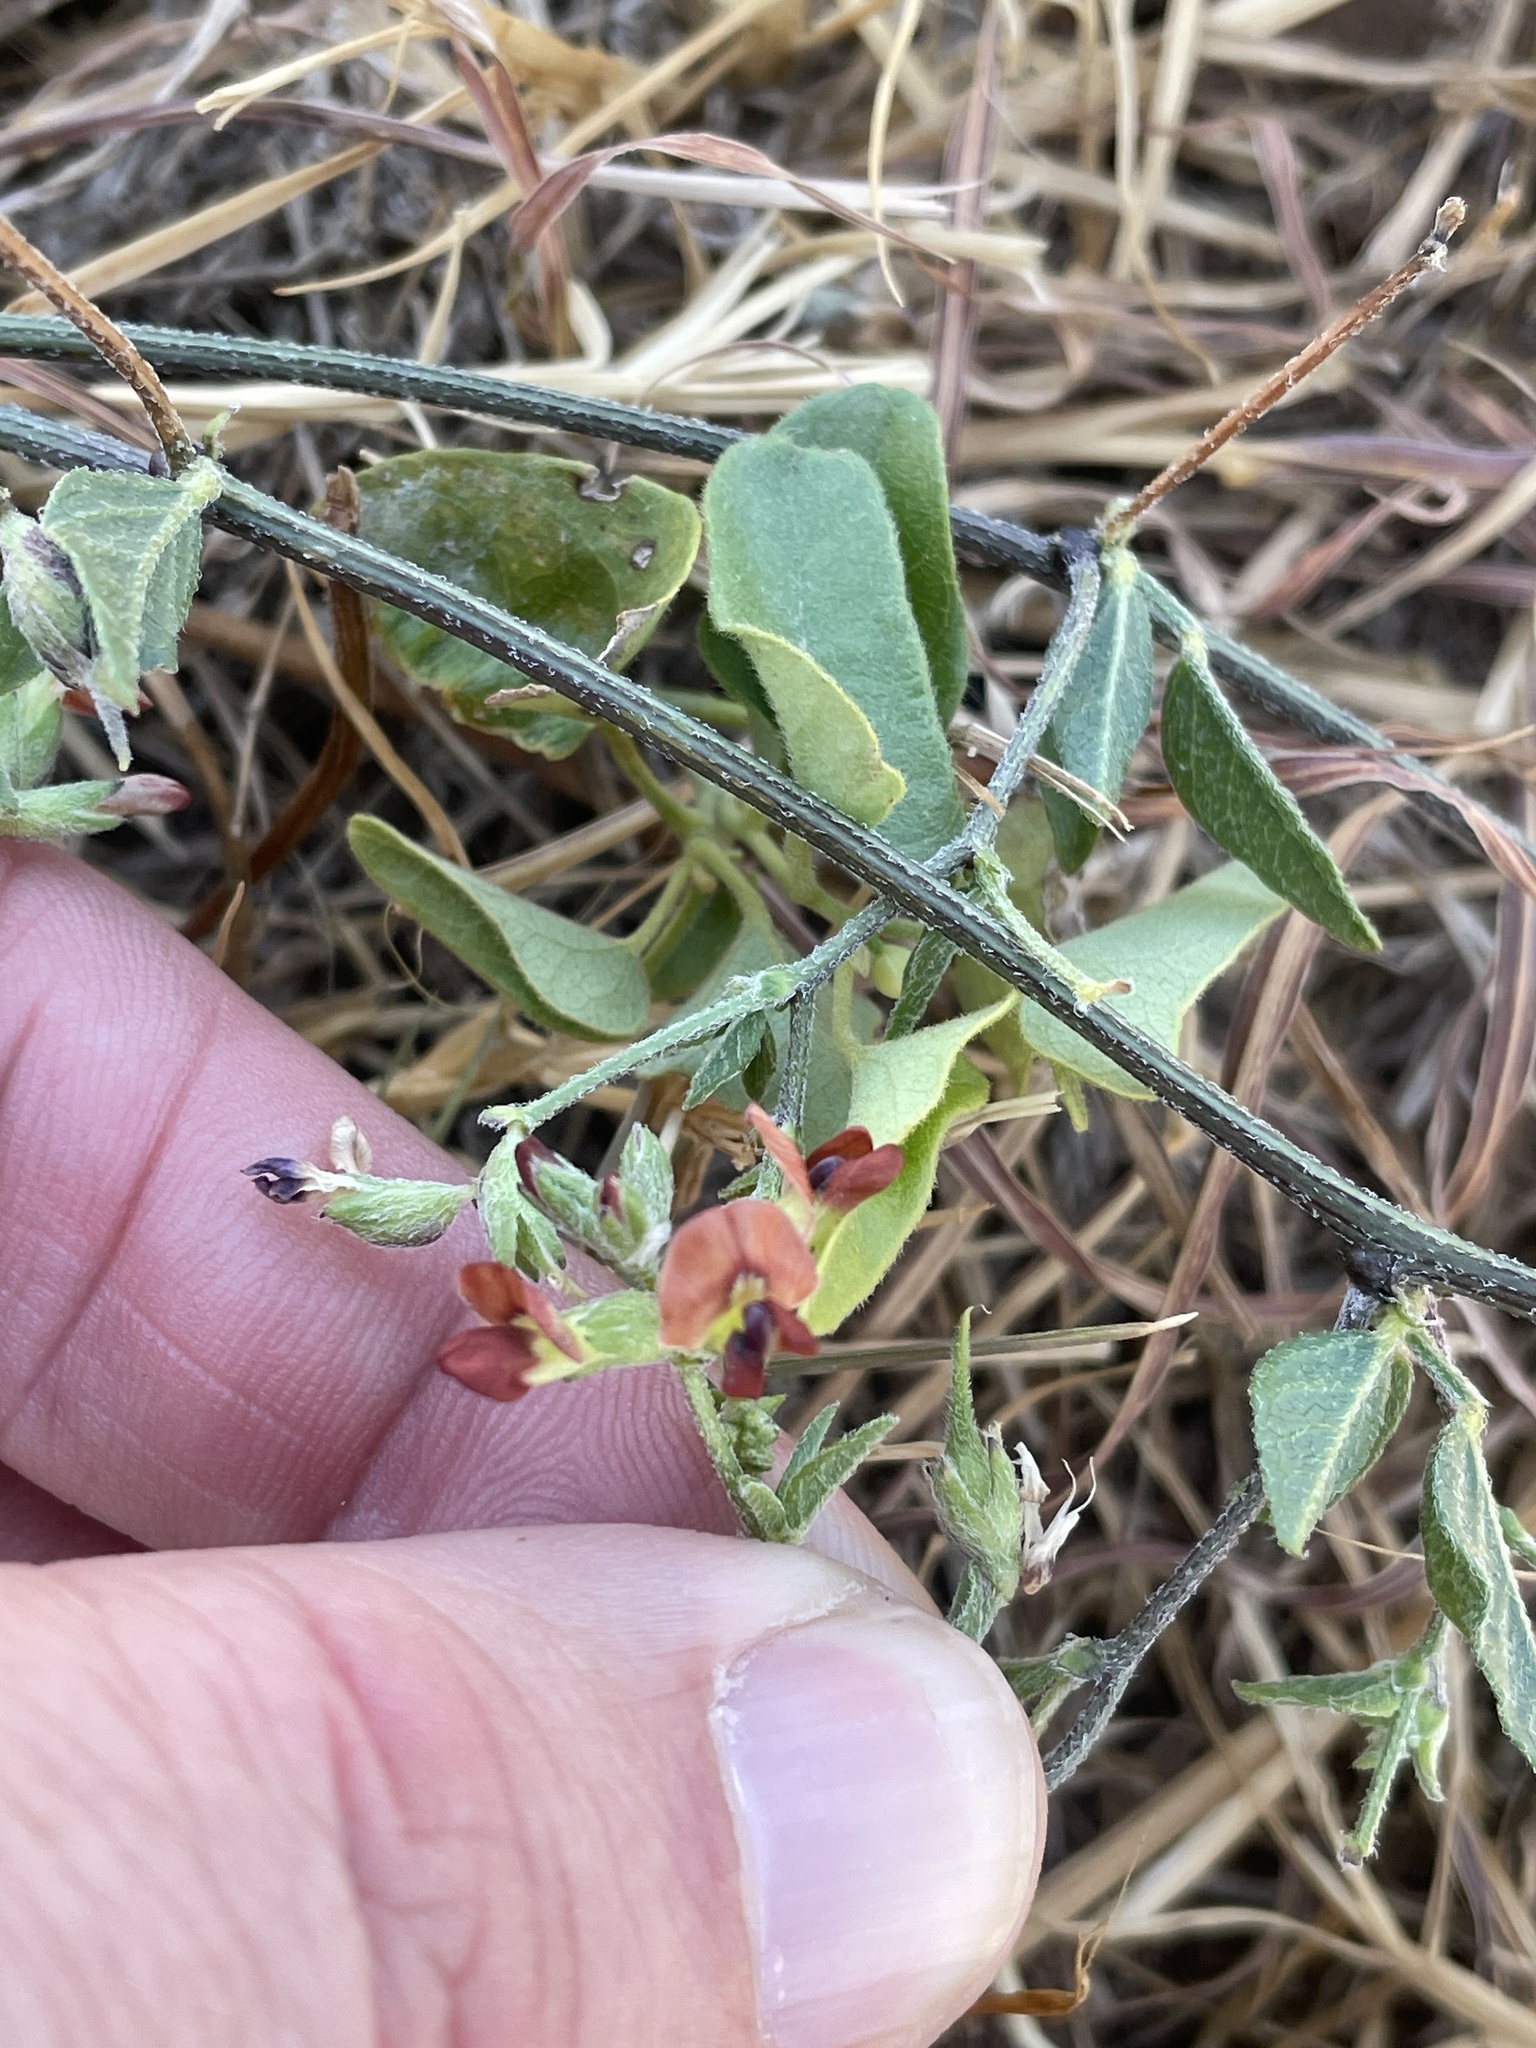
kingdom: Plantae
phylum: Tracheophyta
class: Magnoliopsida
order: Fabales
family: Fabaceae
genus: Pediomelum
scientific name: Pediomelum rhombifolium
